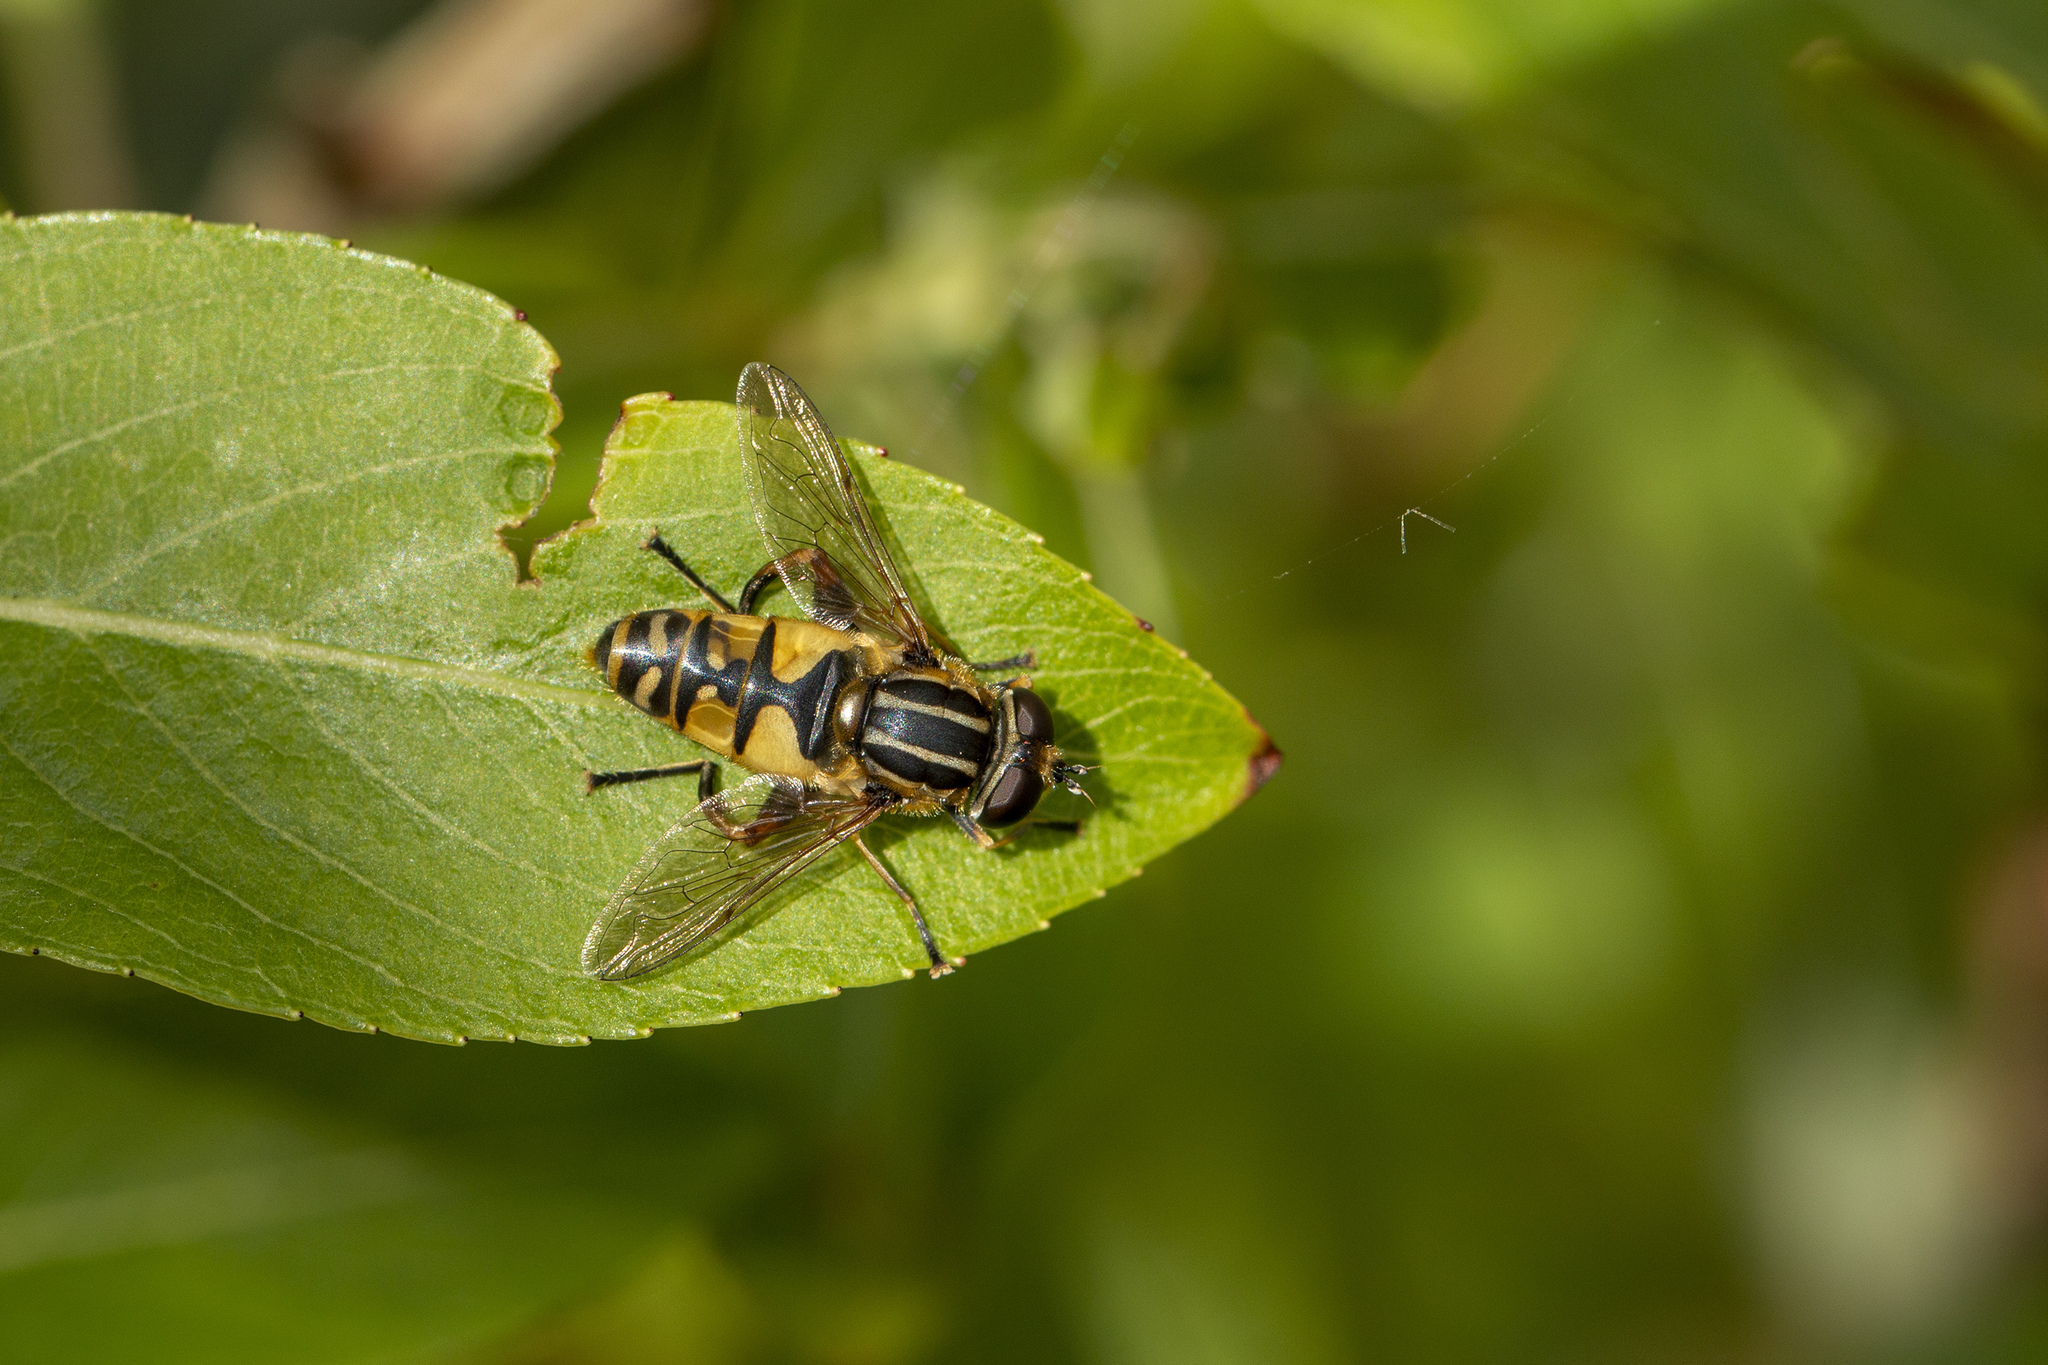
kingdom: Animalia
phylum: Arthropoda
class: Insecta
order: Diptera
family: Syrphidae
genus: Helophilus
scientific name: Helophilus pendulus
